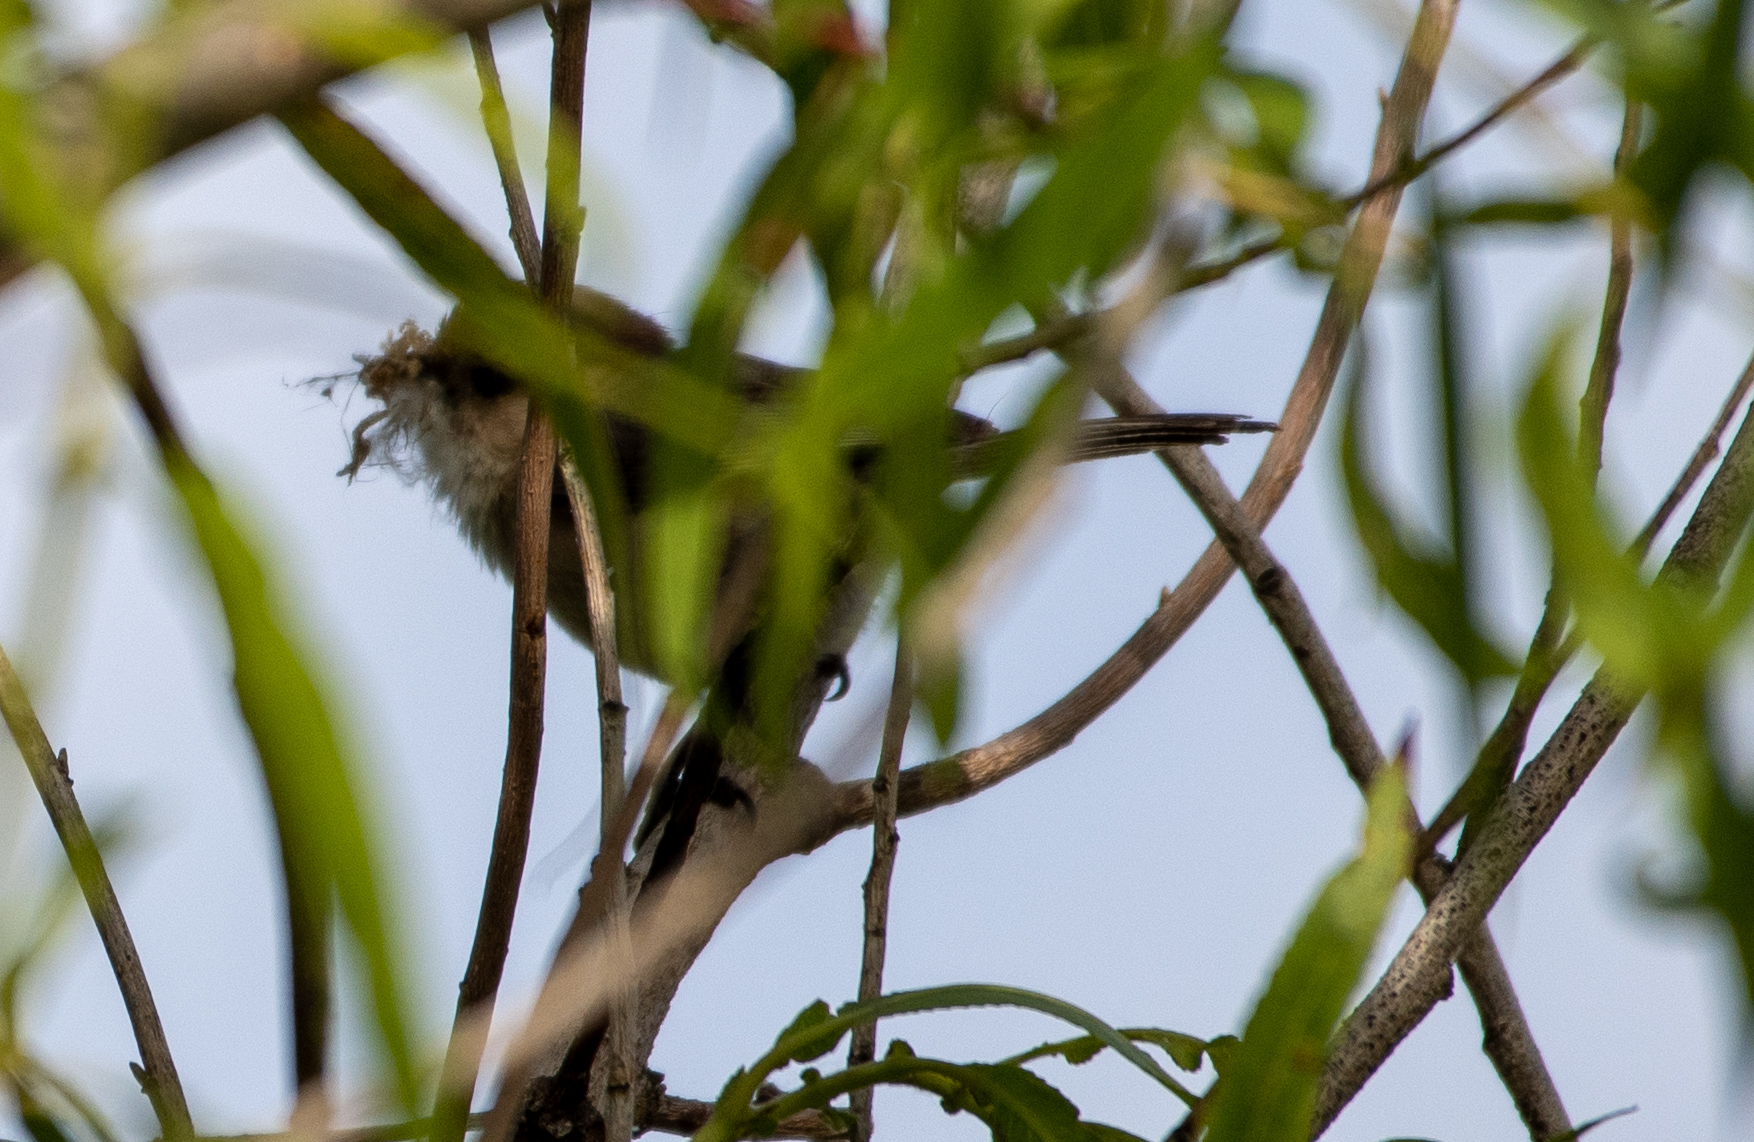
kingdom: Animalia
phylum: Chordata
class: Aves
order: Passeriformes
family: Aegithalidae
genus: Psaltriparus
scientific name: Psaltriparus minimus
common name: American bushtit
